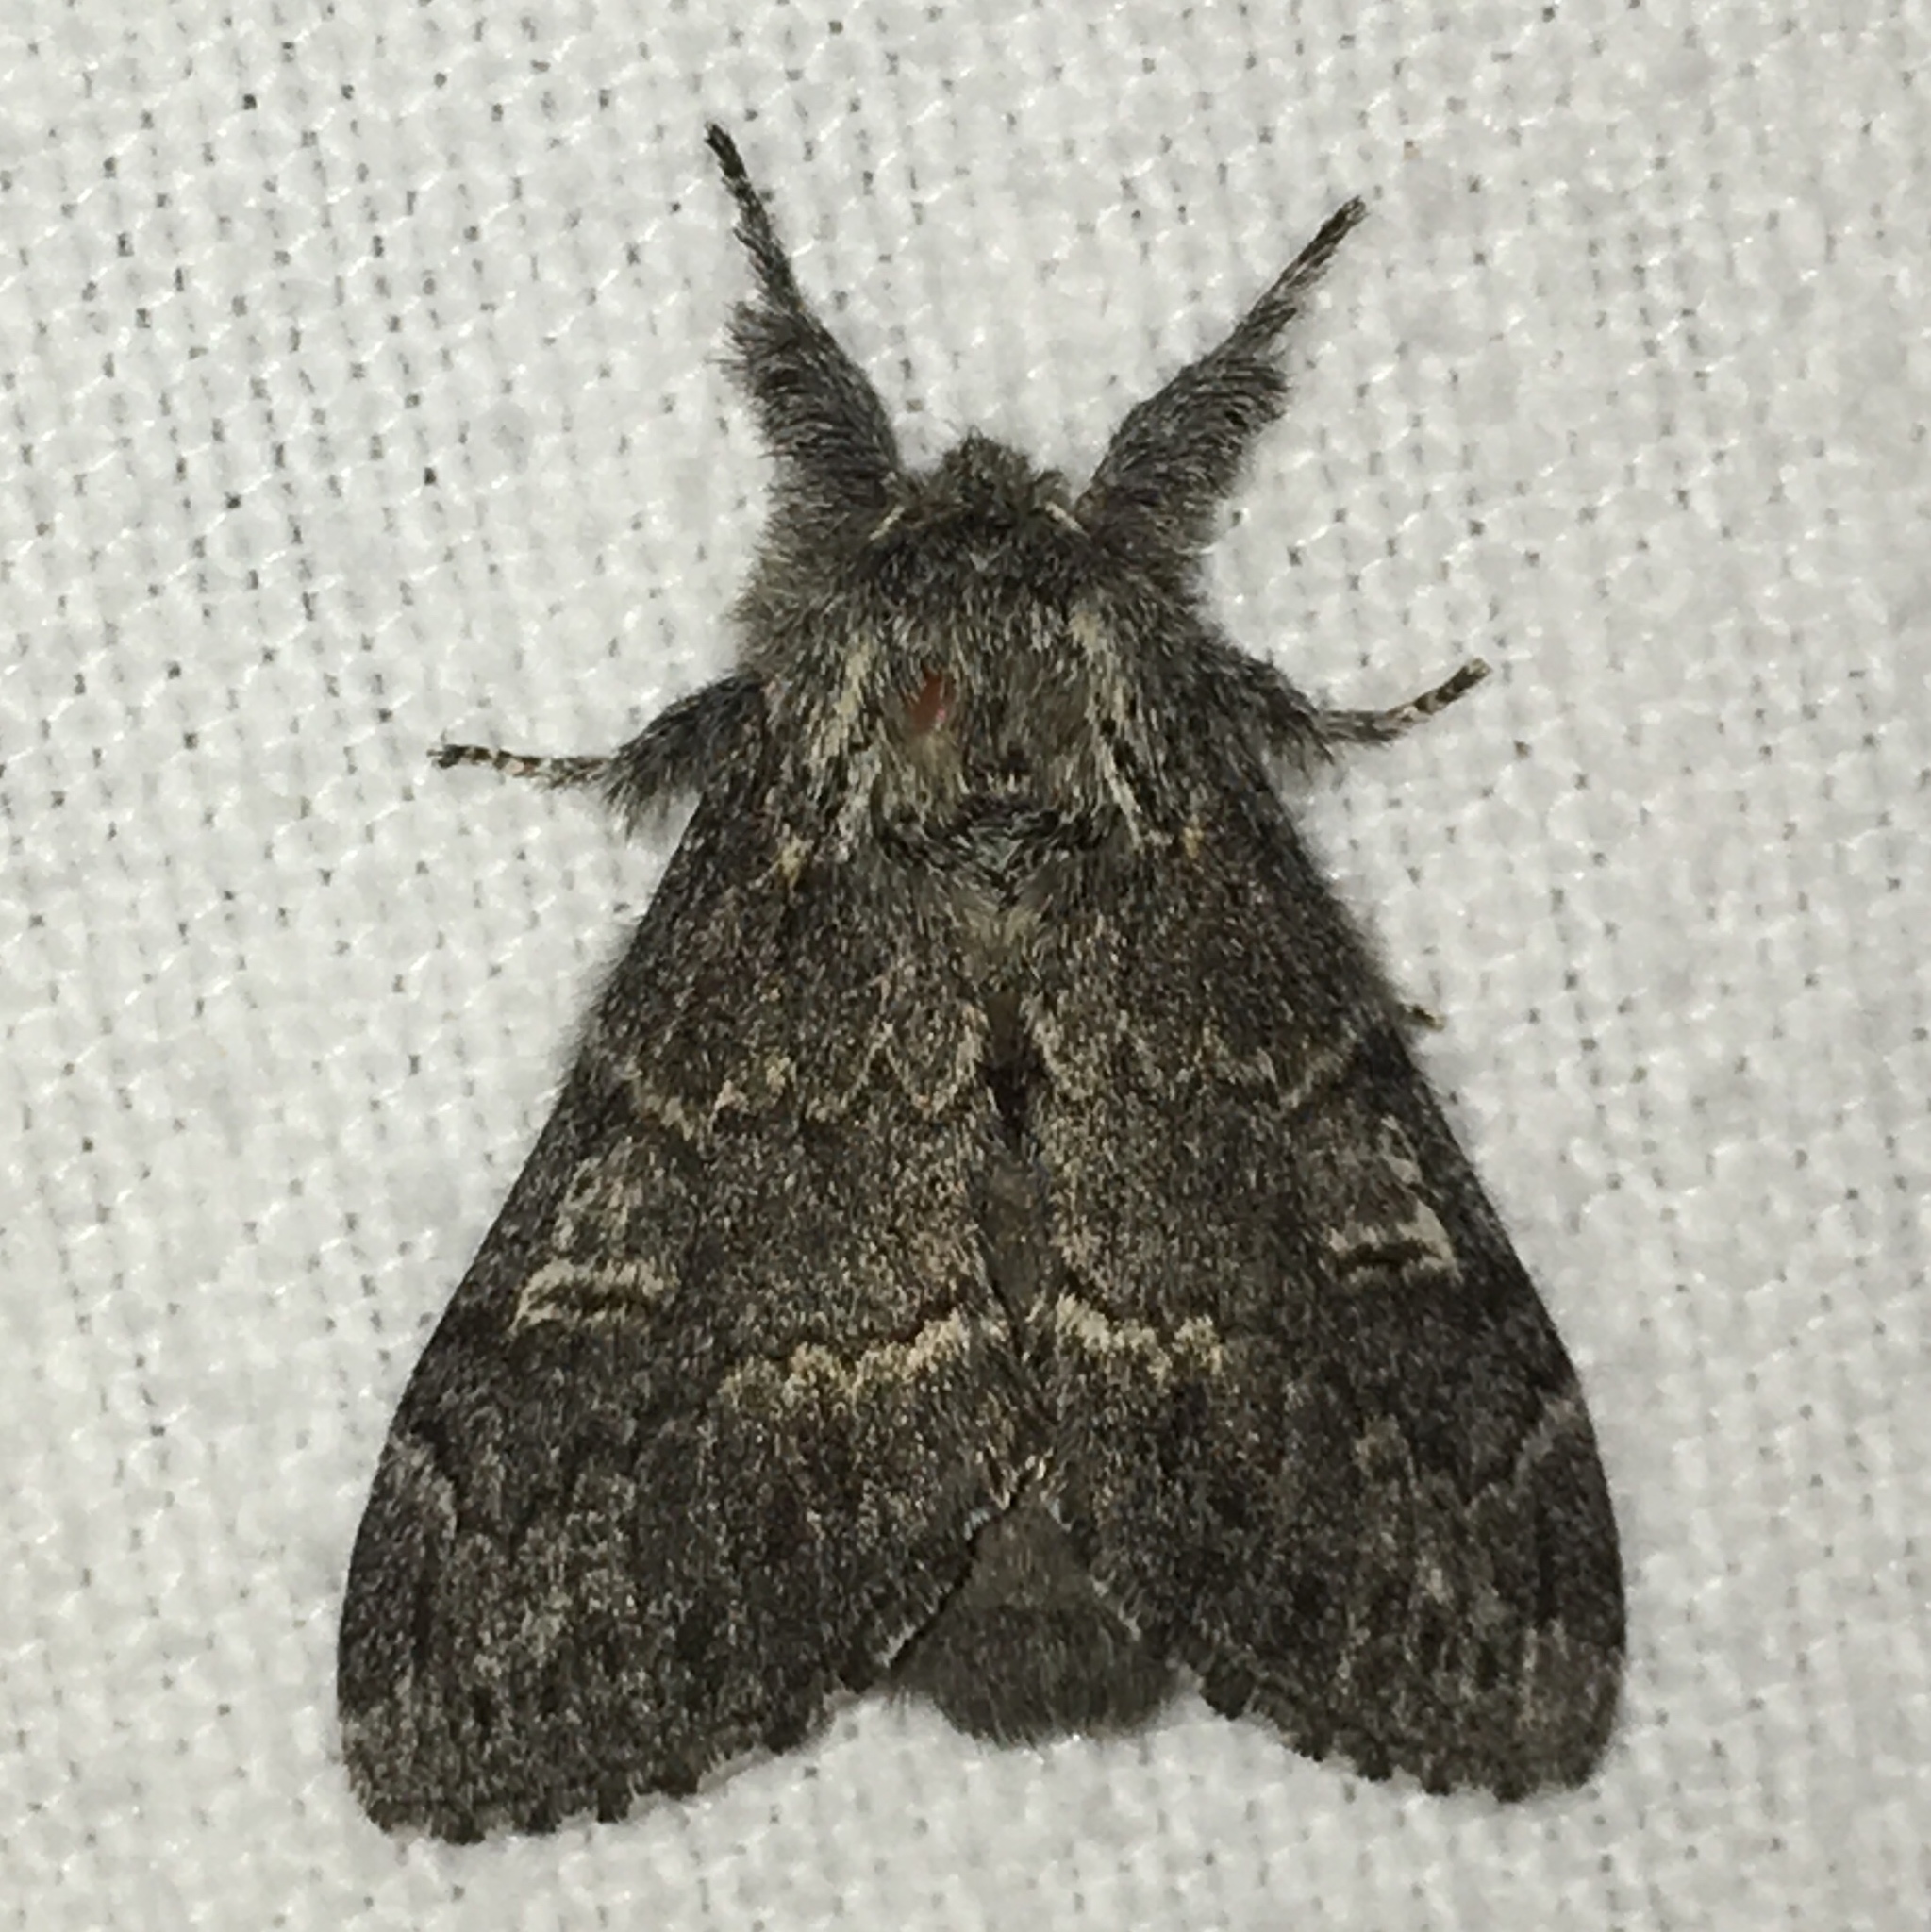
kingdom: Animalia
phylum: Arthropoda
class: Insecta
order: Lepidoptera
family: Notodontidae
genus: Notodonta
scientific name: Notodonta torva
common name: Large dark prominent
